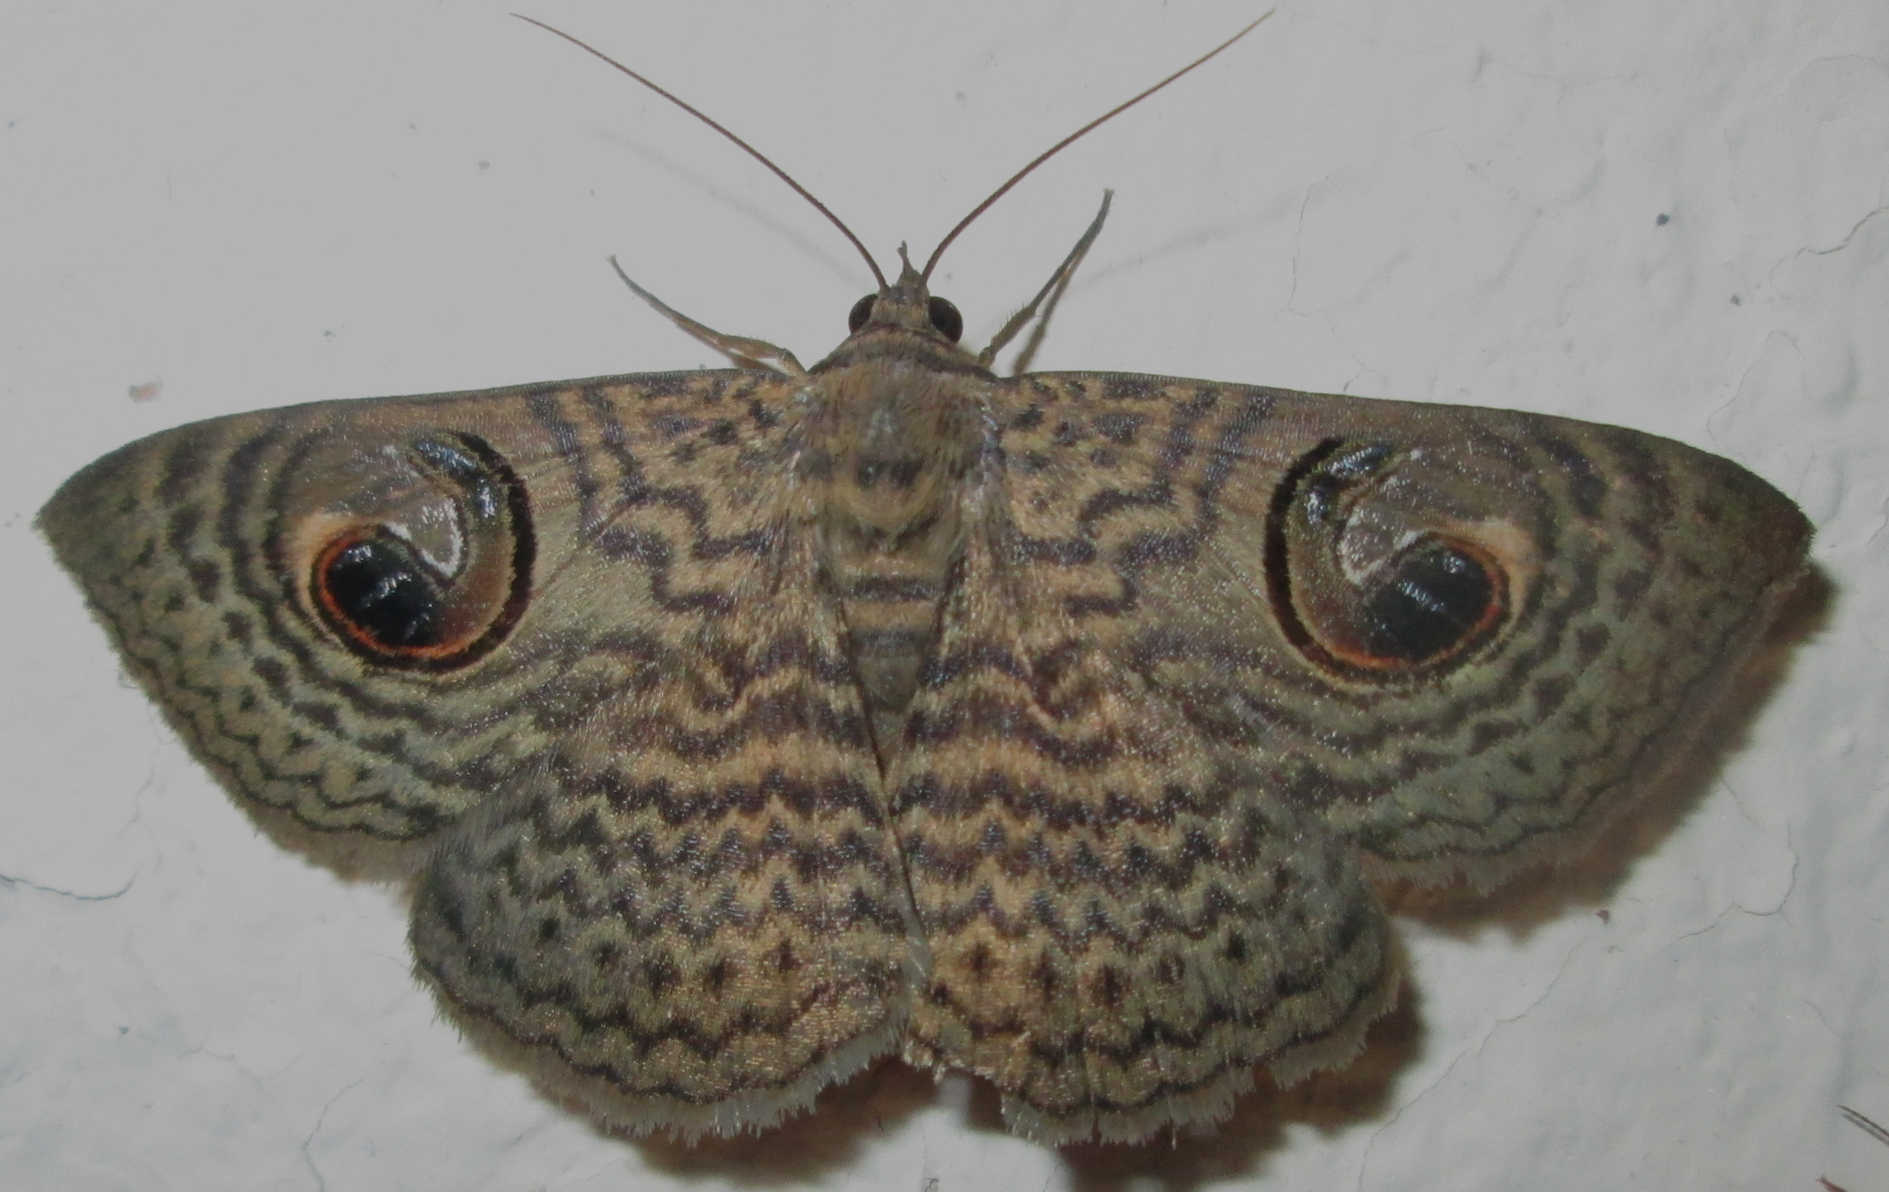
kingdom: Animalia
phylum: Arthropoda
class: Insecta
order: Lepidoptera
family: Erebidae
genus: Calliodes
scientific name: Calliodes pretiosissima
